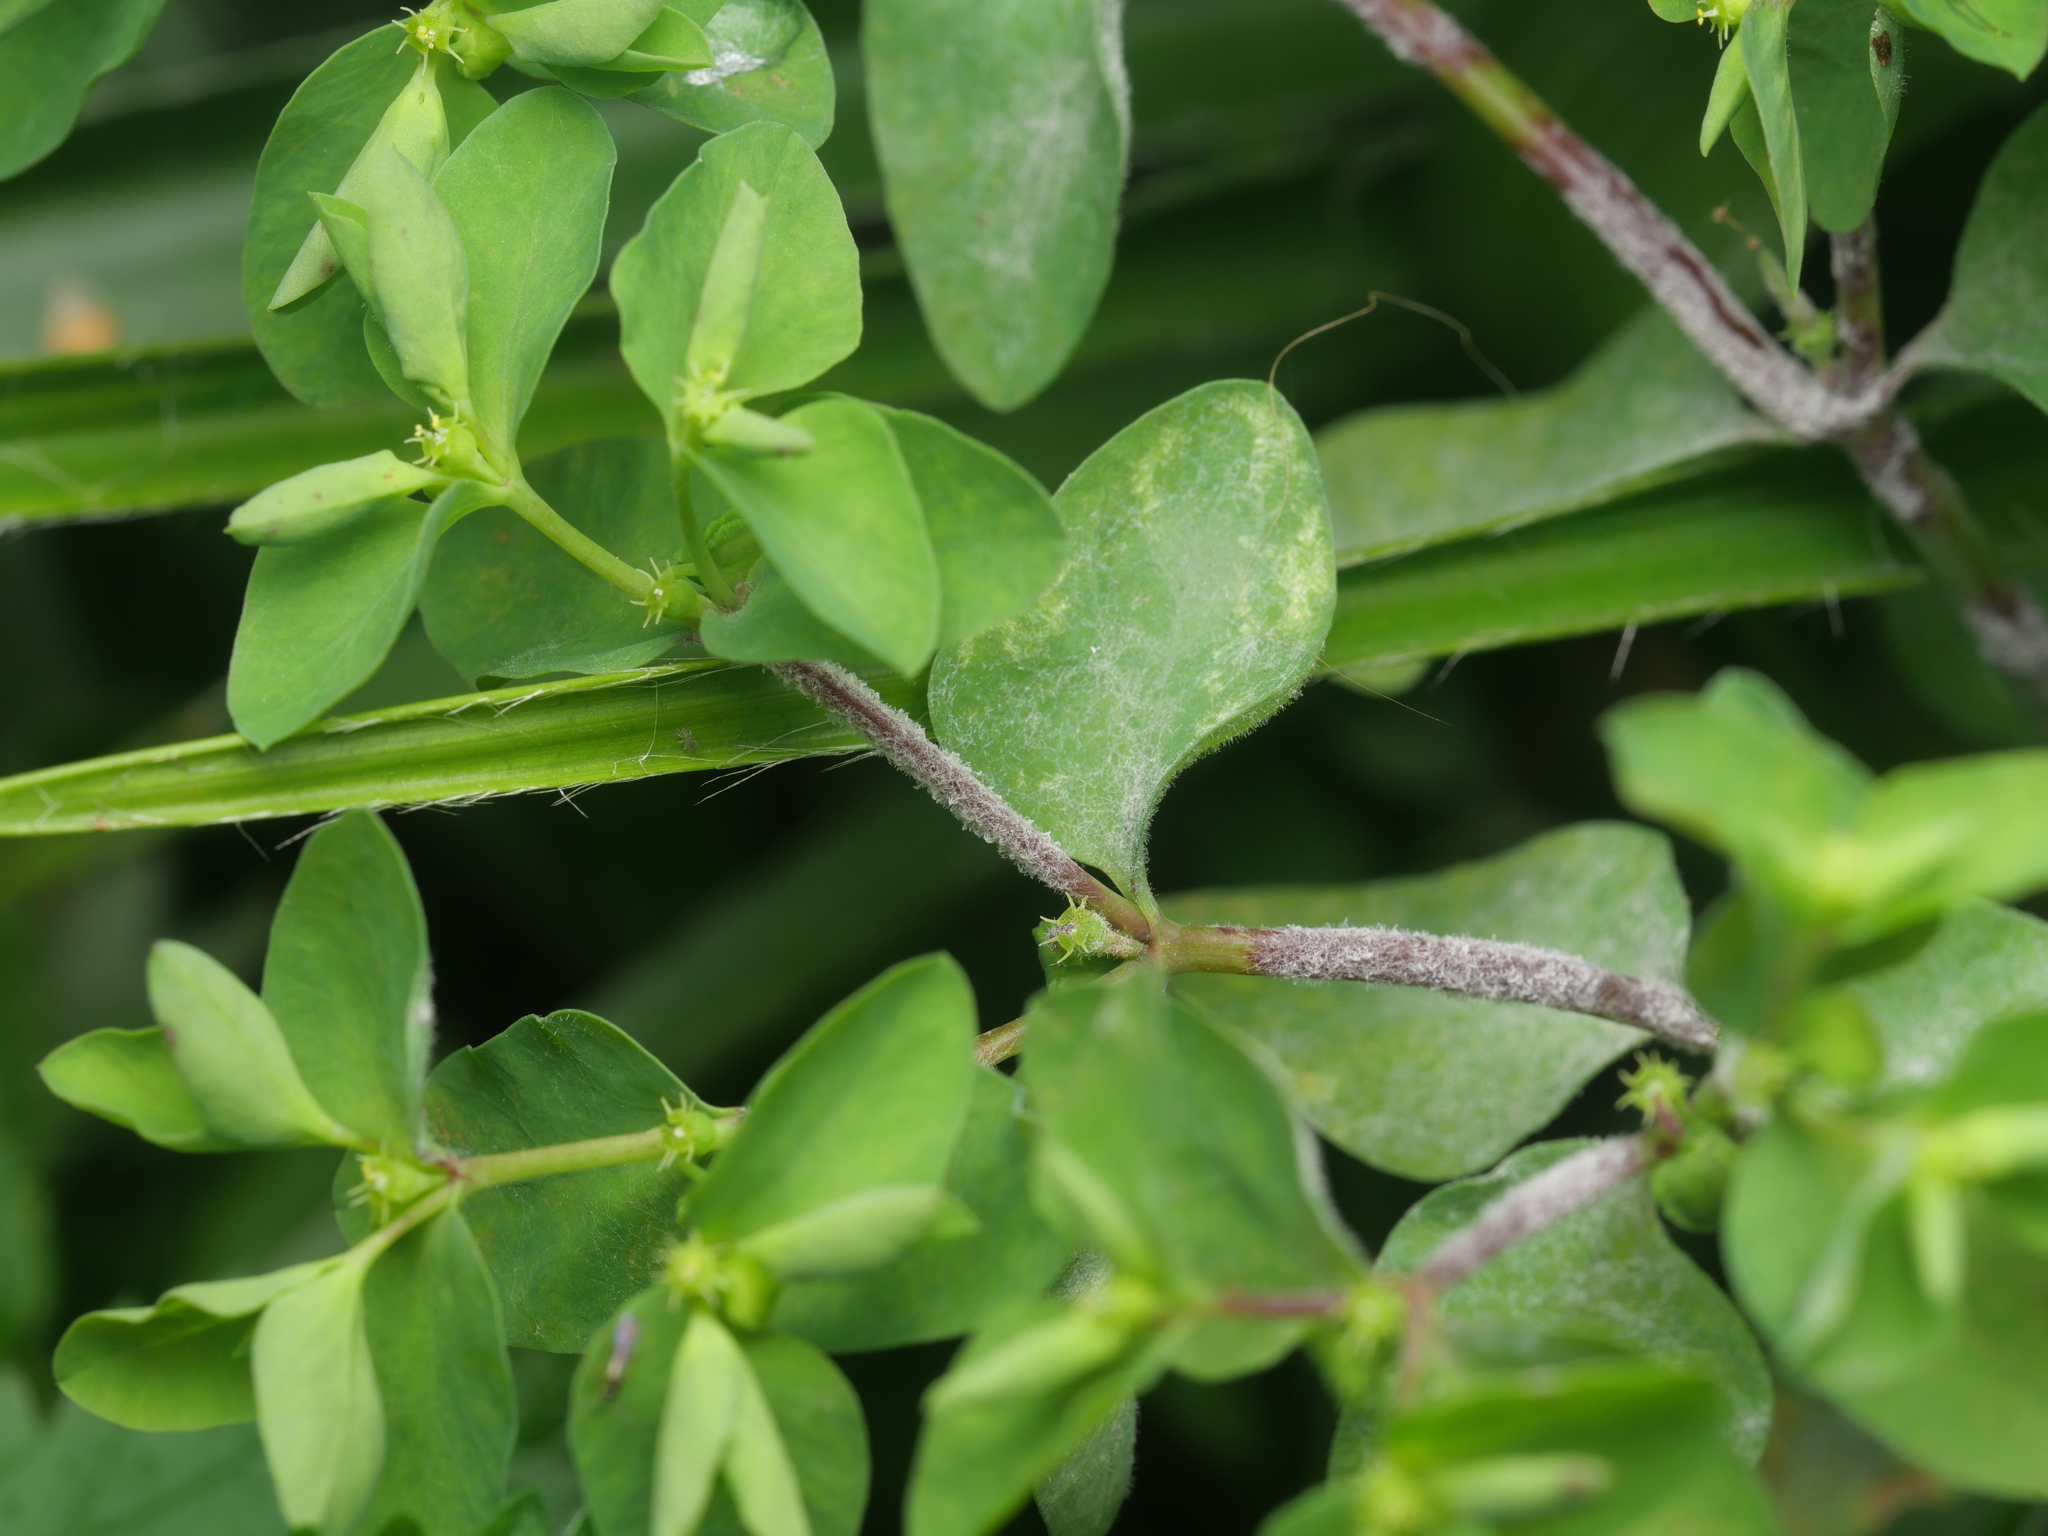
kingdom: Fungi
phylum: Ascomycota
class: Leotiomycetes
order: Helotiales
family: Erysiphaceae
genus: Podosphaera
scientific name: Podosphaera euphorbiae
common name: Eurasian poinsettia powdery mildew
